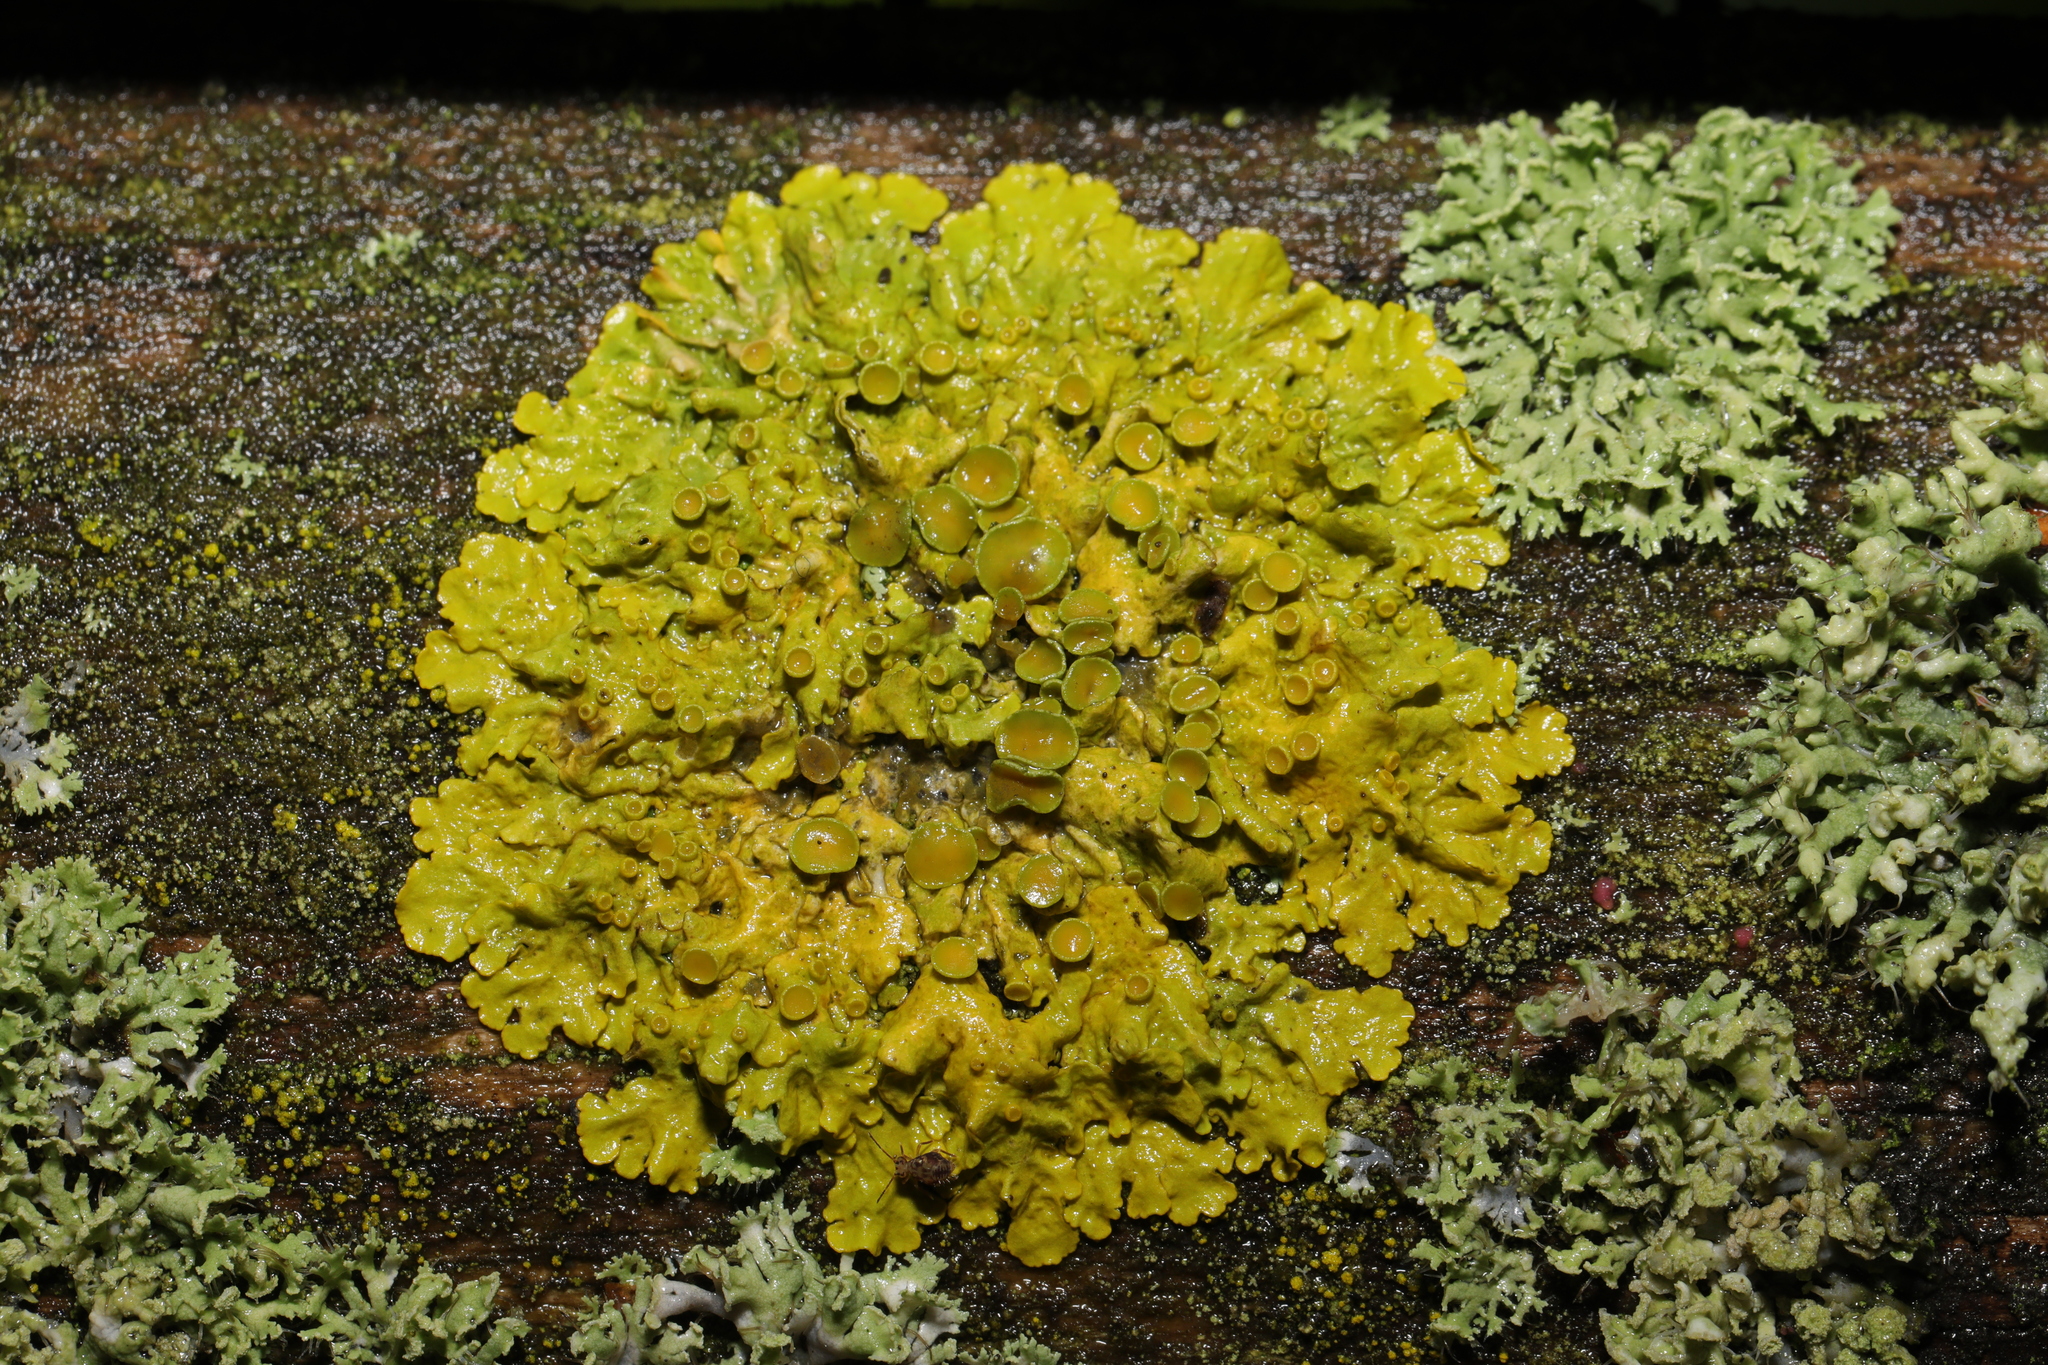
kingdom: Fungi
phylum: Ascomycota
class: Lecanoromycetes
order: Teloschistales
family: Teloschistaceae
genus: Xanthoria
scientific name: Xanthoria parietina
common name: Common orange lichen
